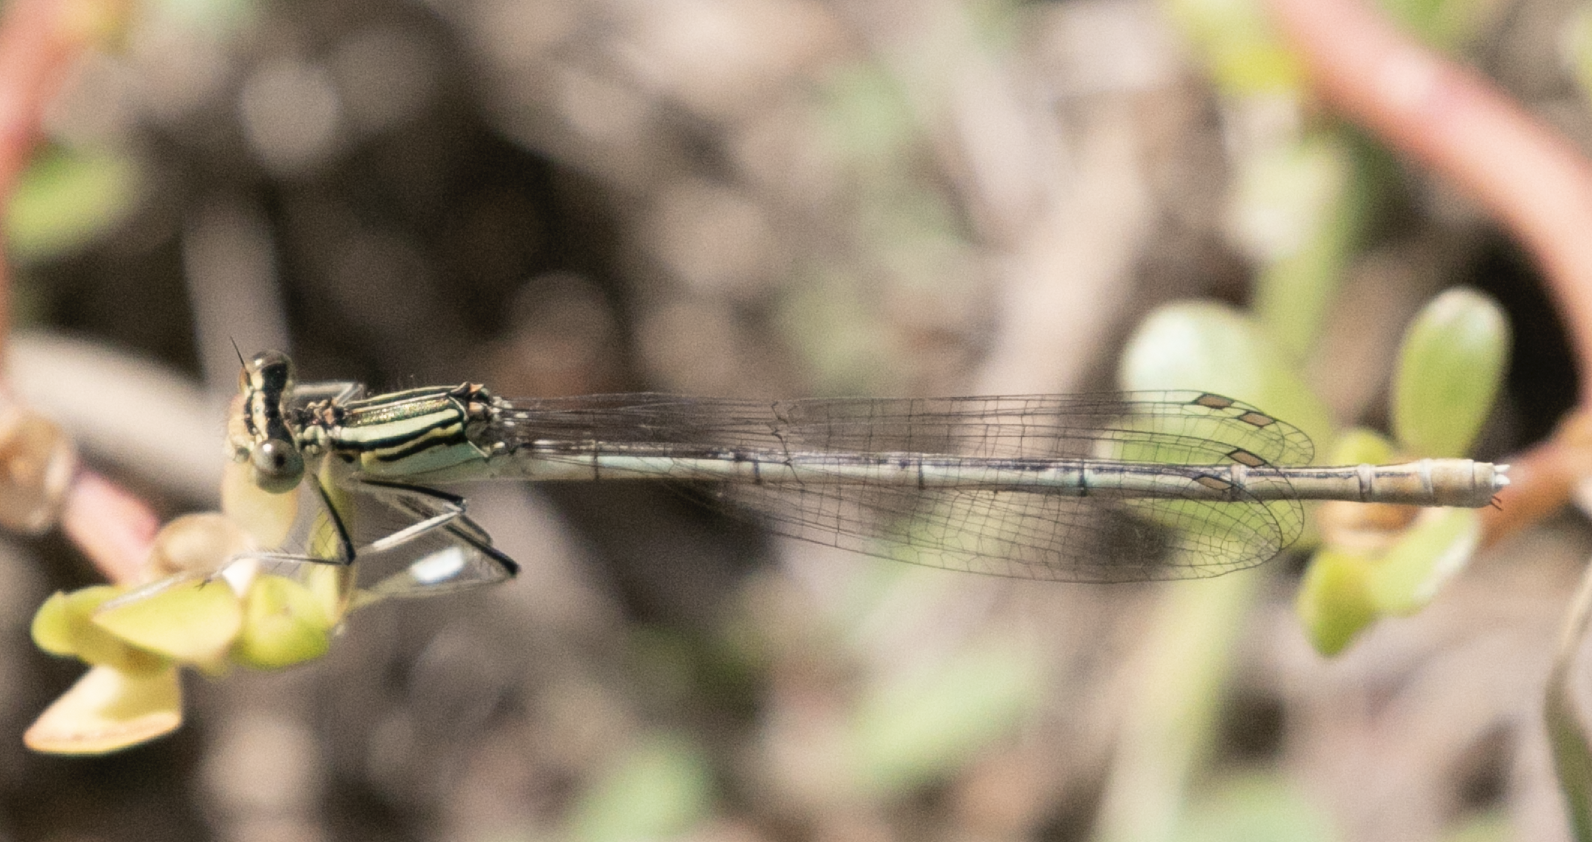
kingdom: Animalia
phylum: Arthropoda
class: Insecta
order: Odonata
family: Platycnemididae
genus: Platycnemis
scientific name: Platycnemis pennipes
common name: White-legged damselfly
